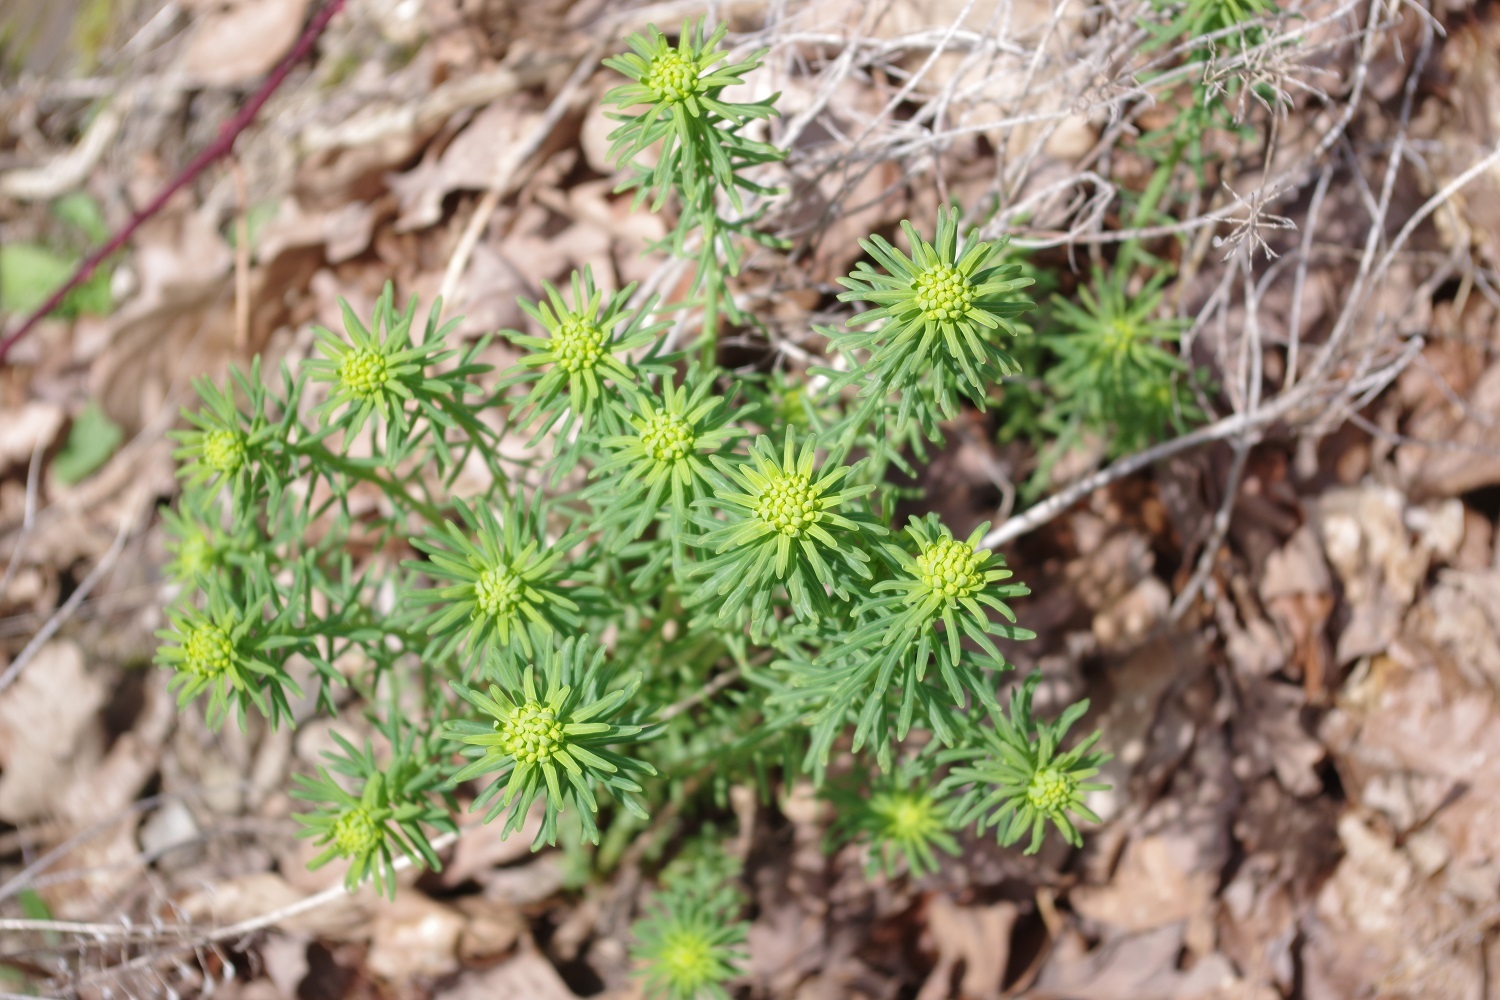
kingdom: Plantae
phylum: Tracheophyta
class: Magnoliopsida
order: Malpighiales
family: Euphorbiaceae
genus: Euphorbia
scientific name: Euphorbia cyparissias
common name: Cypress spurge
